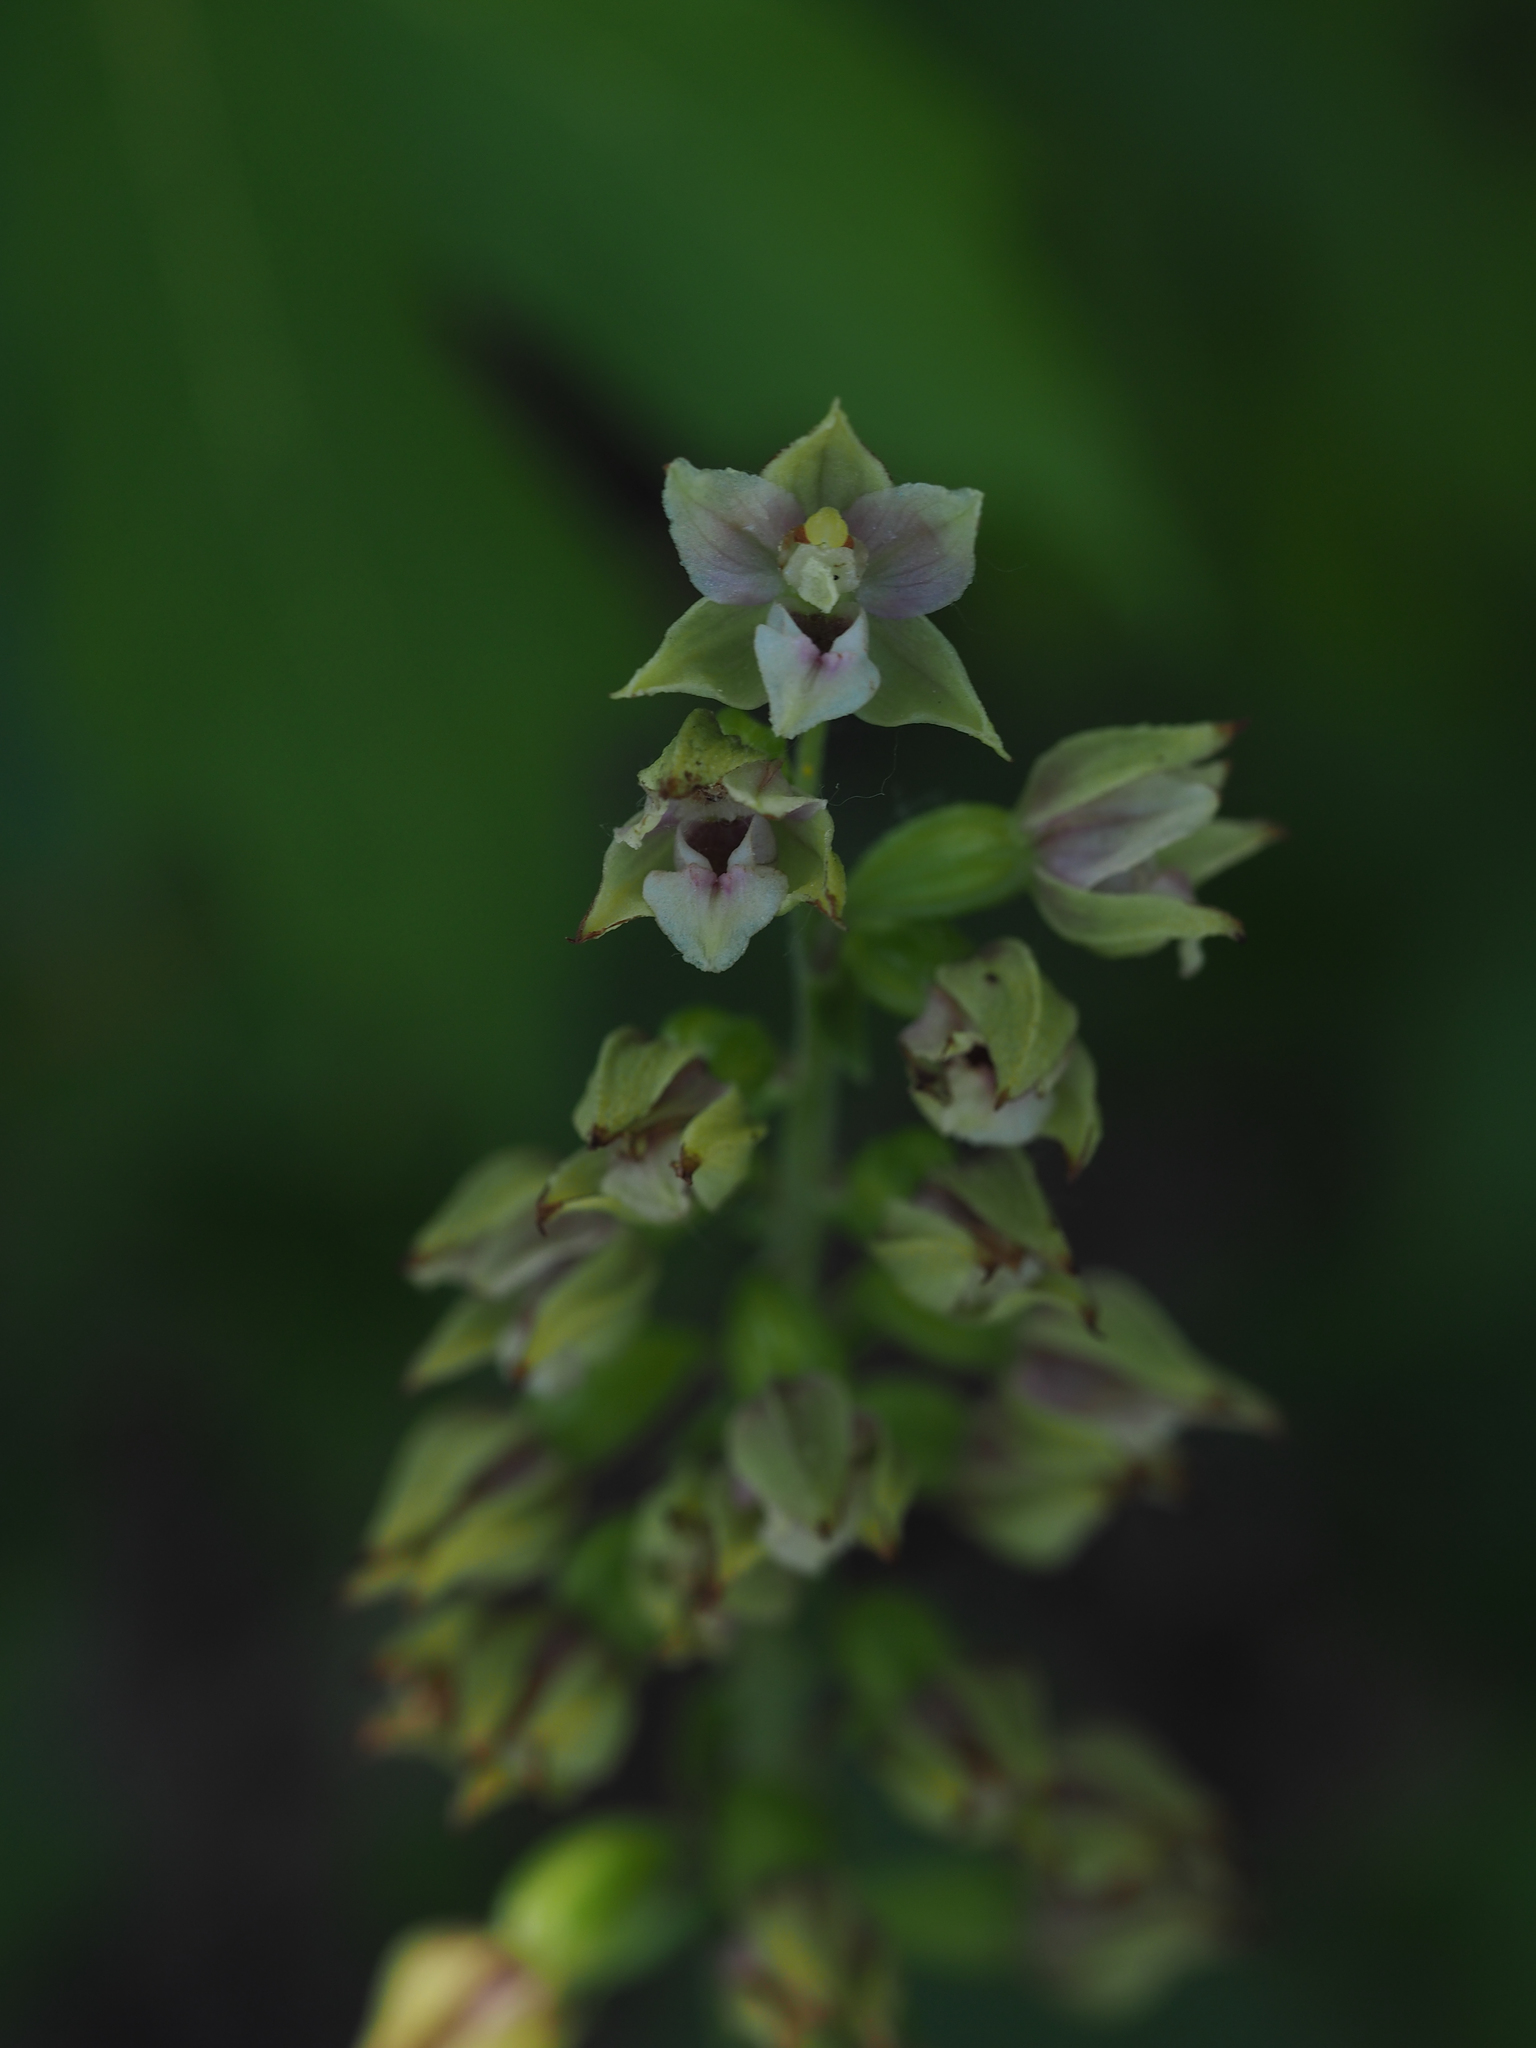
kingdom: Plantae
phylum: Tracheophyta
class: Liliopsida
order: Asparagales
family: Orchidaceae
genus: Epipactis
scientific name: Epipactis bugacensis
